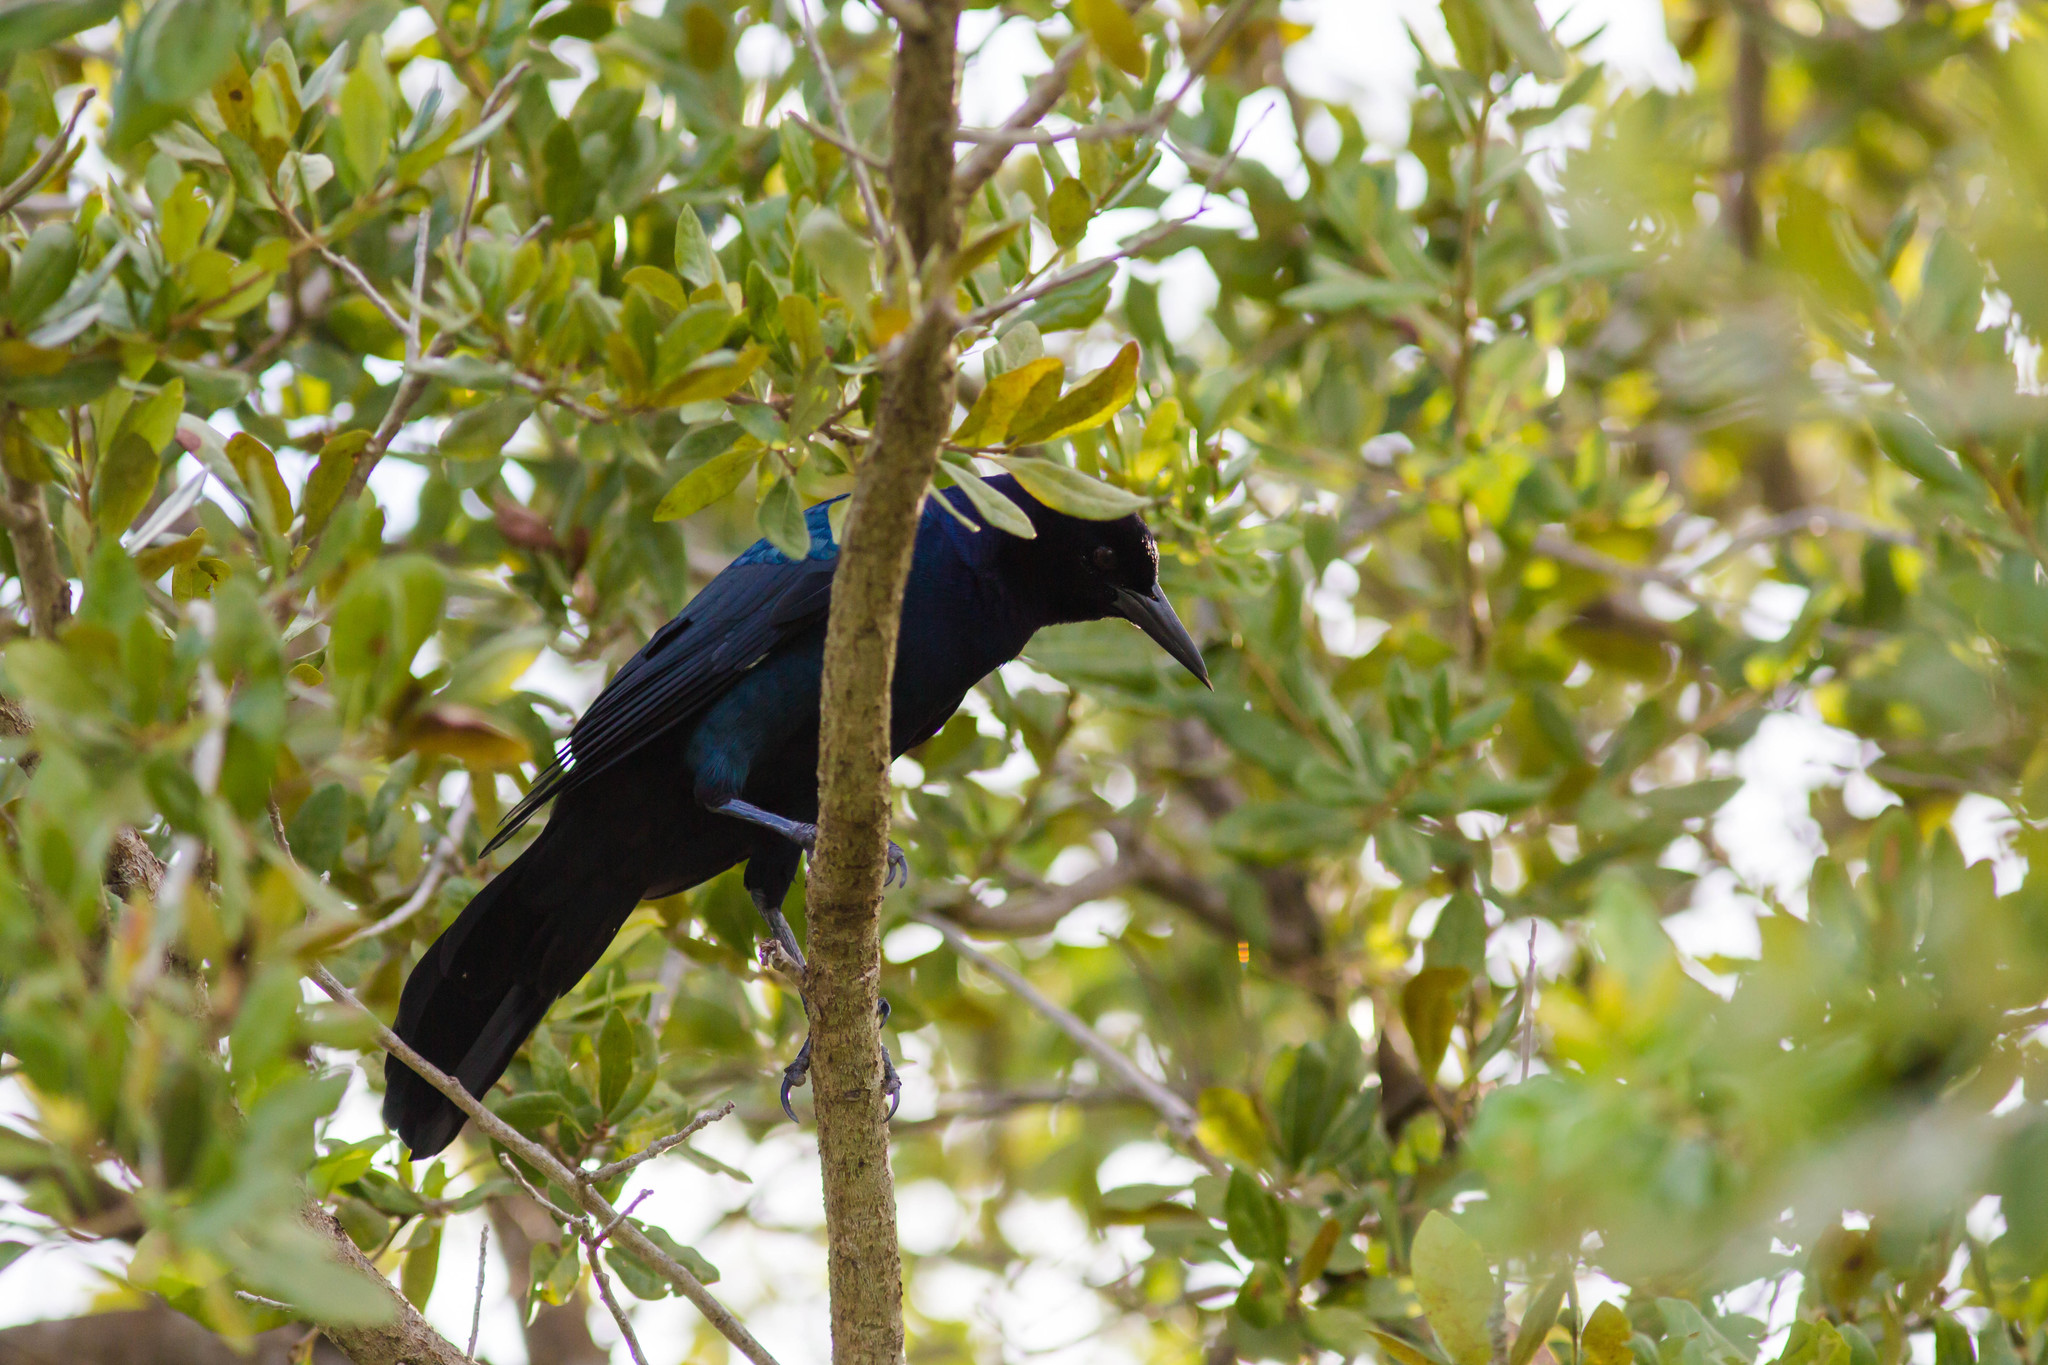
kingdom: Animalia
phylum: Chordata
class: Aves
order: Passeriformes
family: Icteridae
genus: Quiscalus
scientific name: Quiscalus major
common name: Boat-tailed grackle
